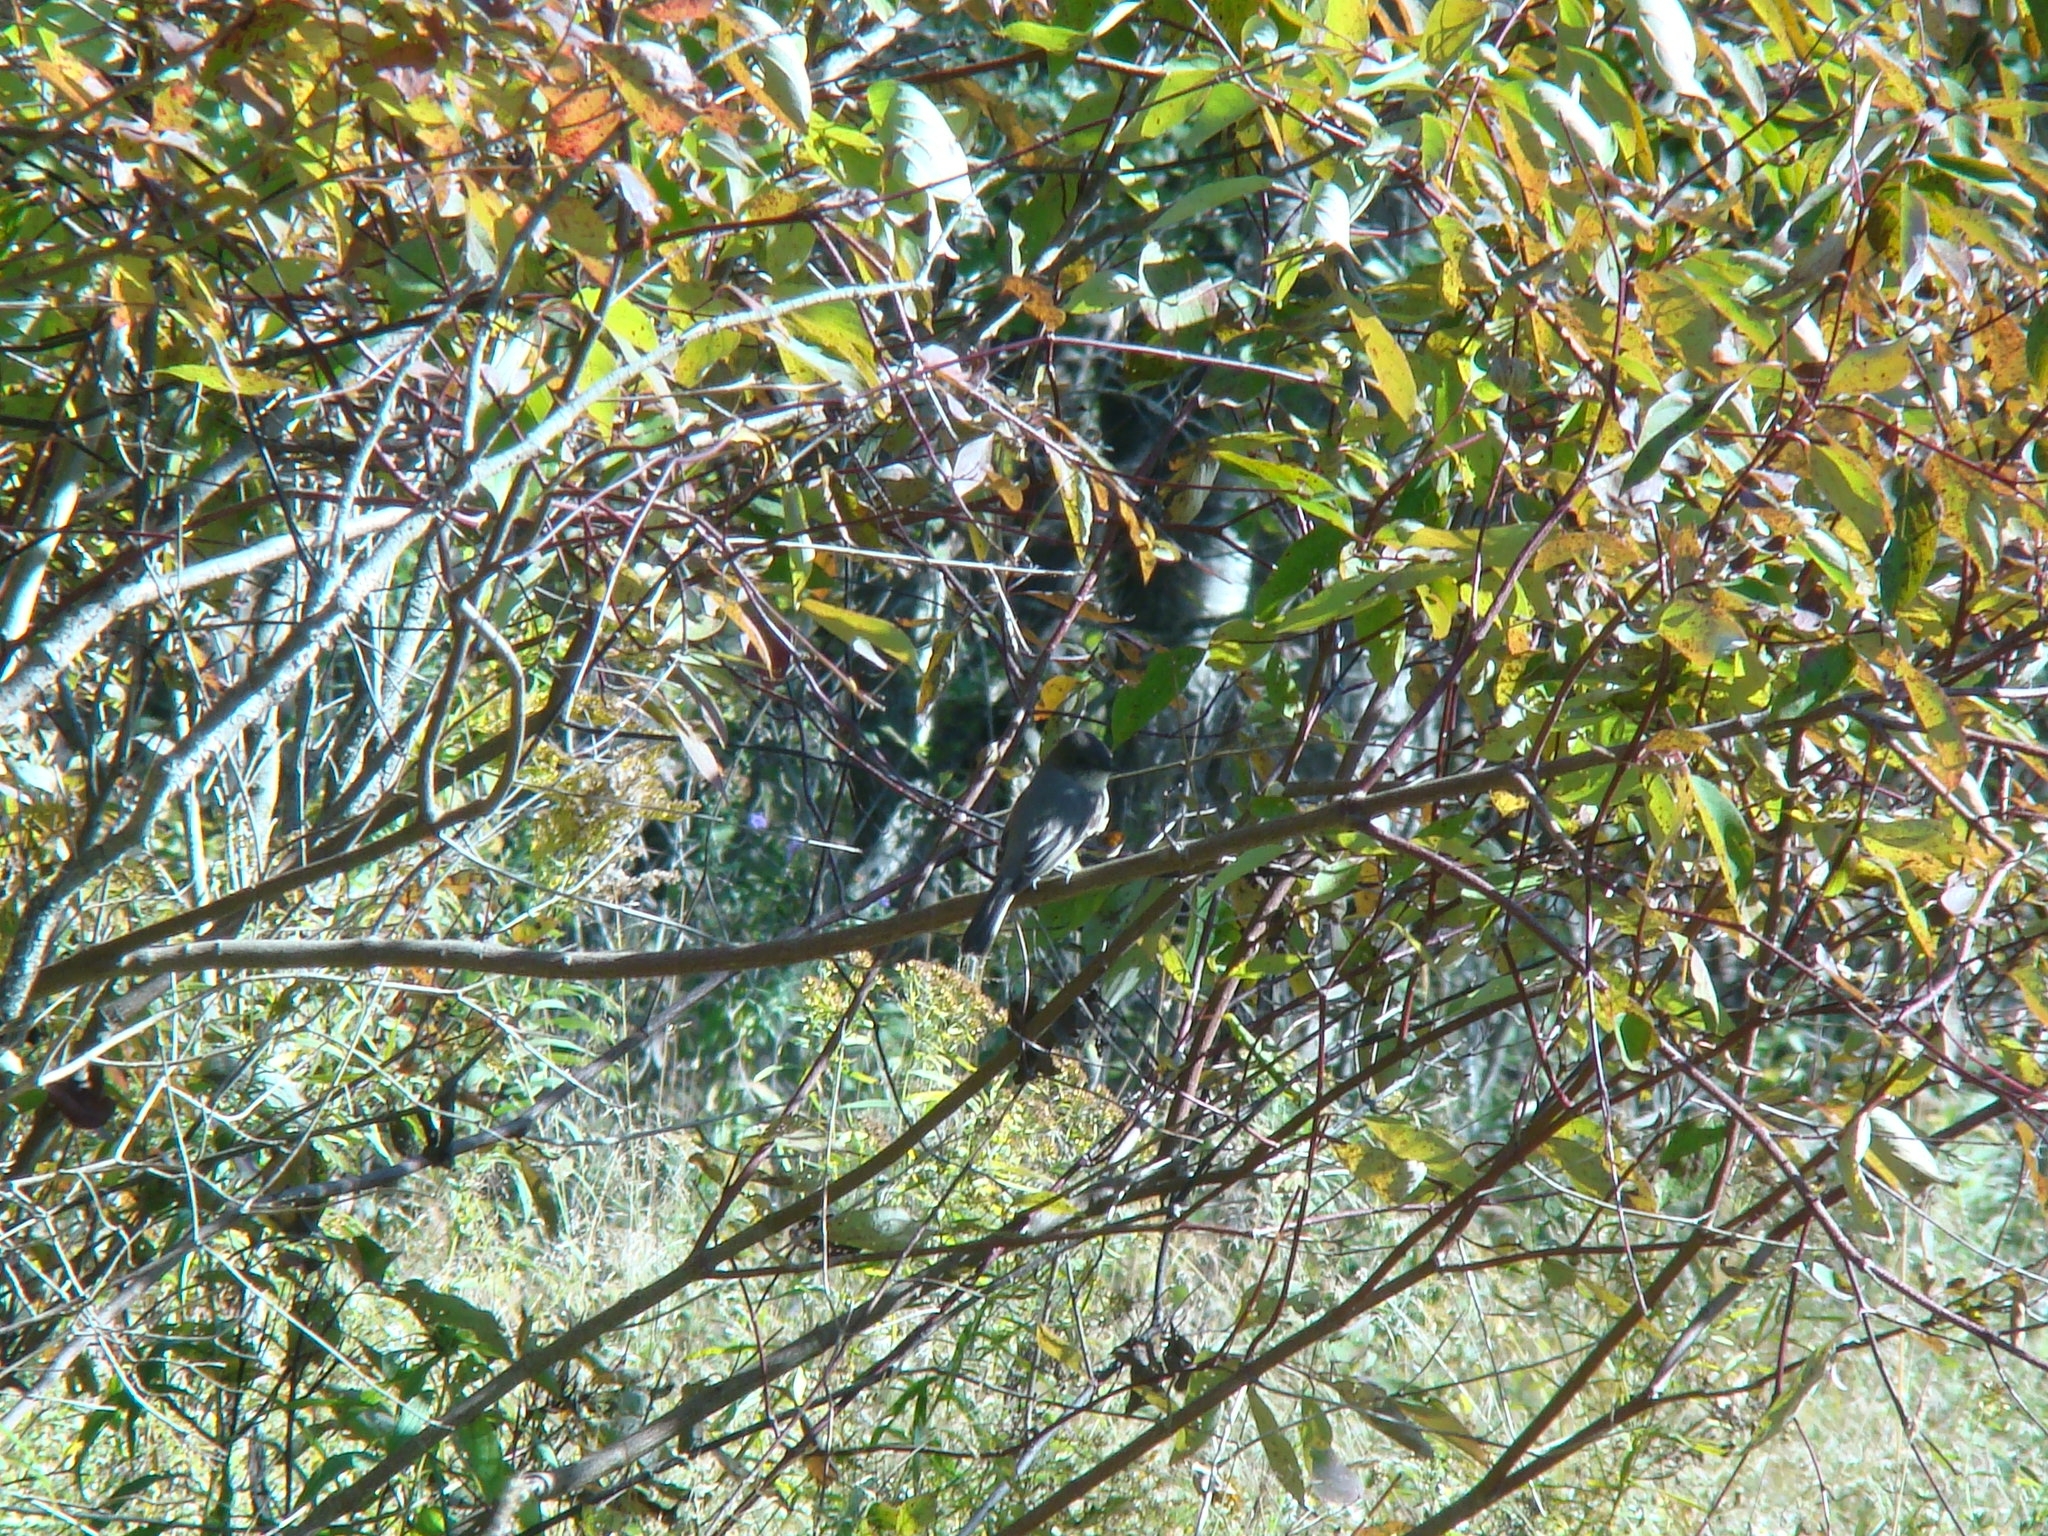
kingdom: Animalia
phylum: Chordata
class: Aves
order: Passeriformes
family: Tyrannidae
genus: Sayornis
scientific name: Sayornis phoebe
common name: Eastern phoebe
